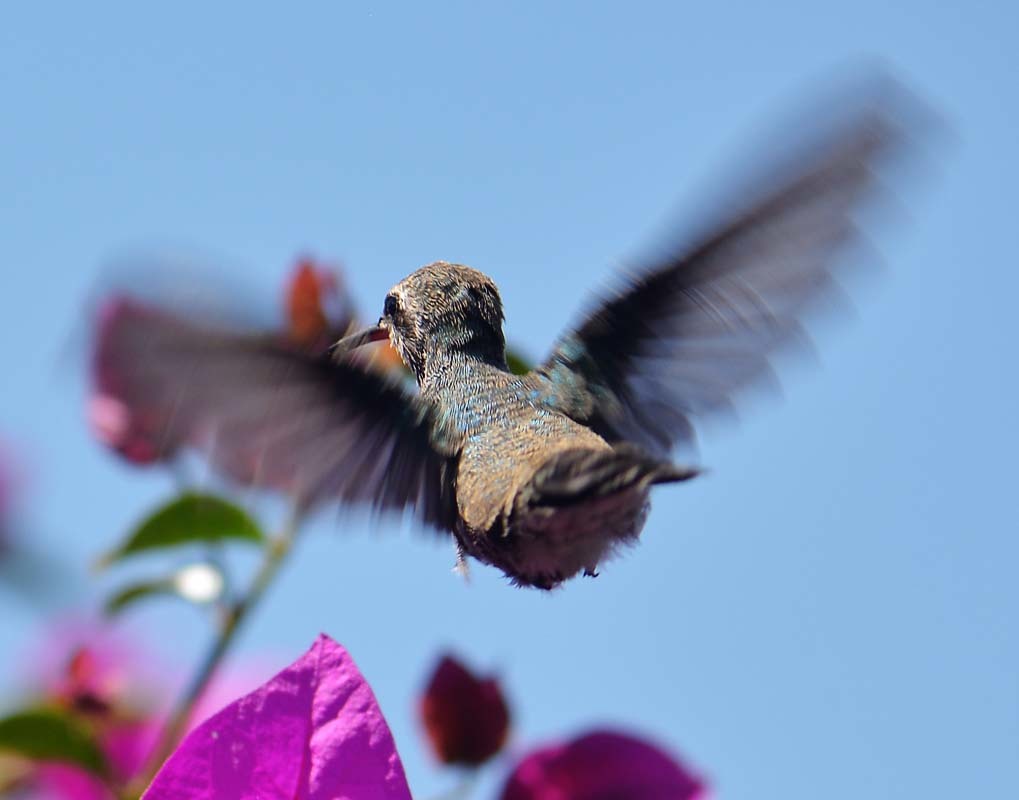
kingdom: Animalia
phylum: Chordata
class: Aves
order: Apodiformes
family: Trochilidae
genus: Cynanthus
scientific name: Cynanthus latirostris
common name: Broad-billed hummingbird
